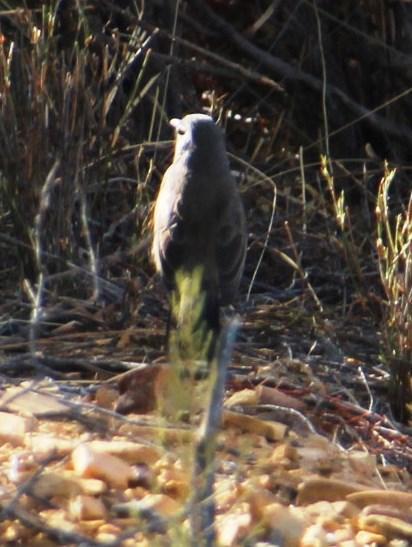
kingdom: Animalia
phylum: Chordata
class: Aves
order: Passeriformes
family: Muscicapidae
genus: Erythropygia
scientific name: Erythropygia coryphoeus
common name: Karoo scrub robin
